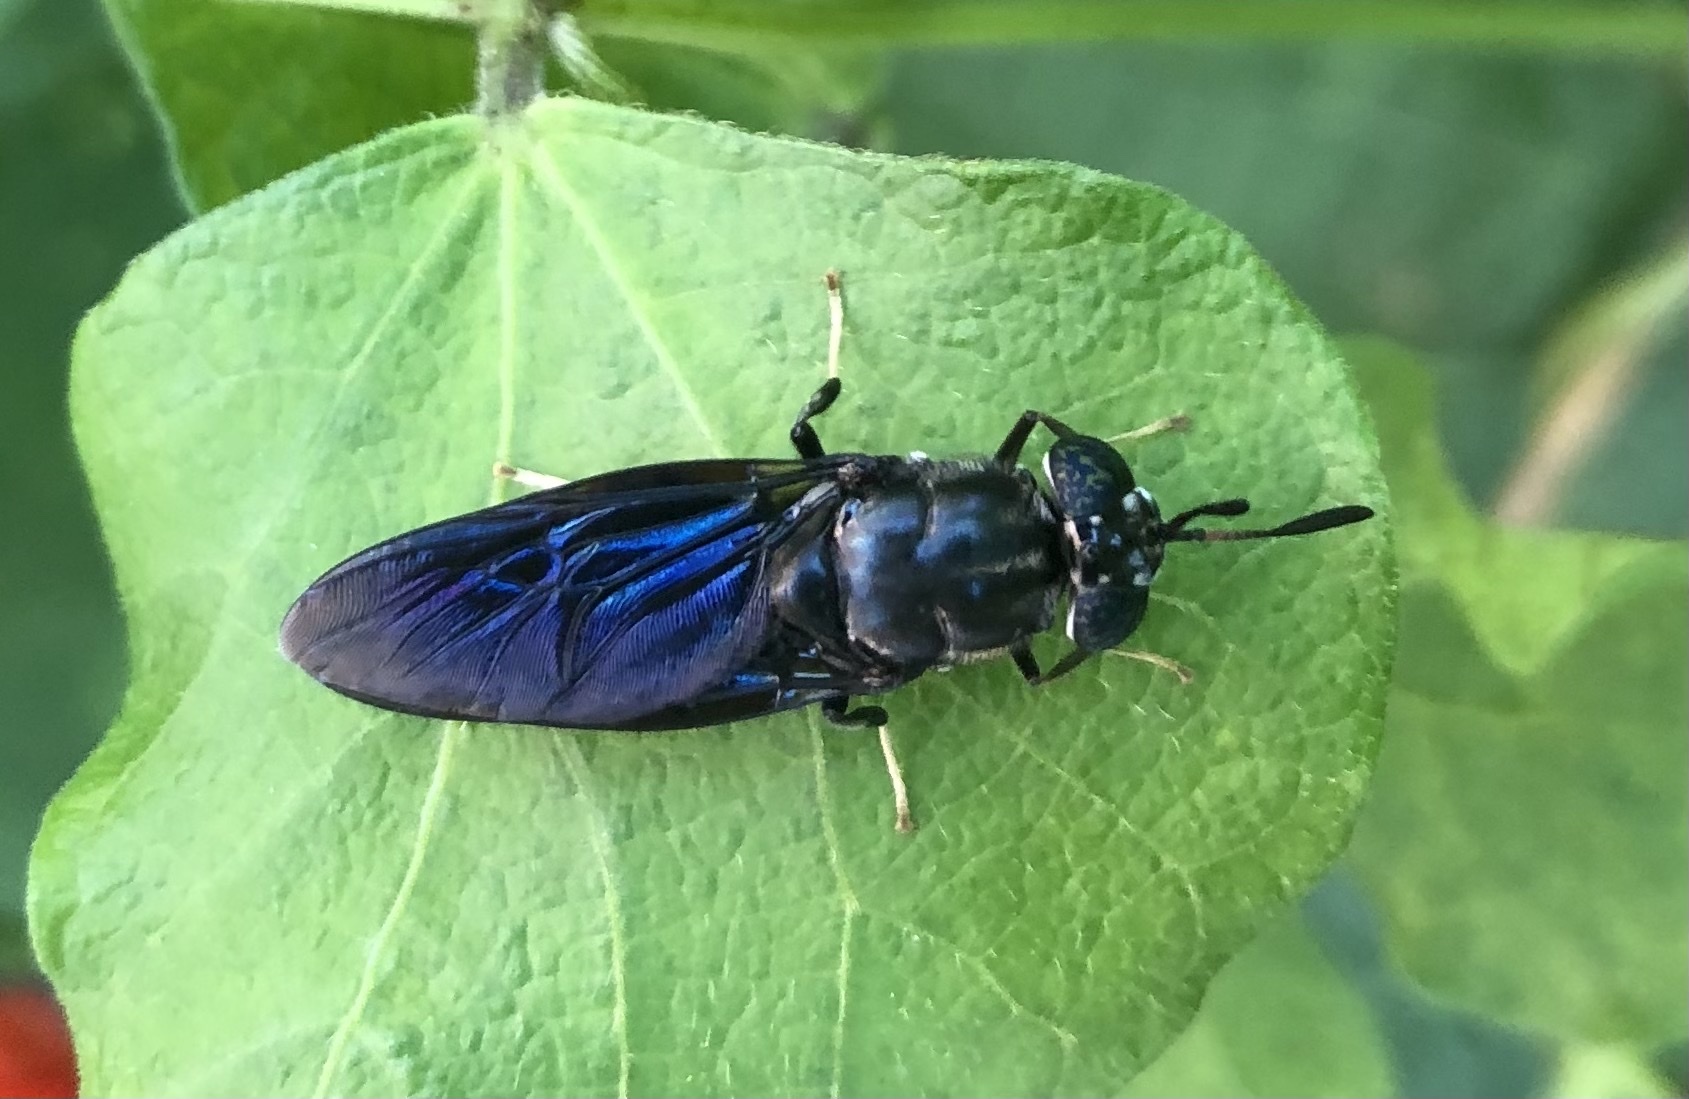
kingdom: Animalia
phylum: Arthropoda
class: Insecta
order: Diptera
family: Stratiomyidae
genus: Hermetia
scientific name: Hermetia illucens
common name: Black soldier fly
